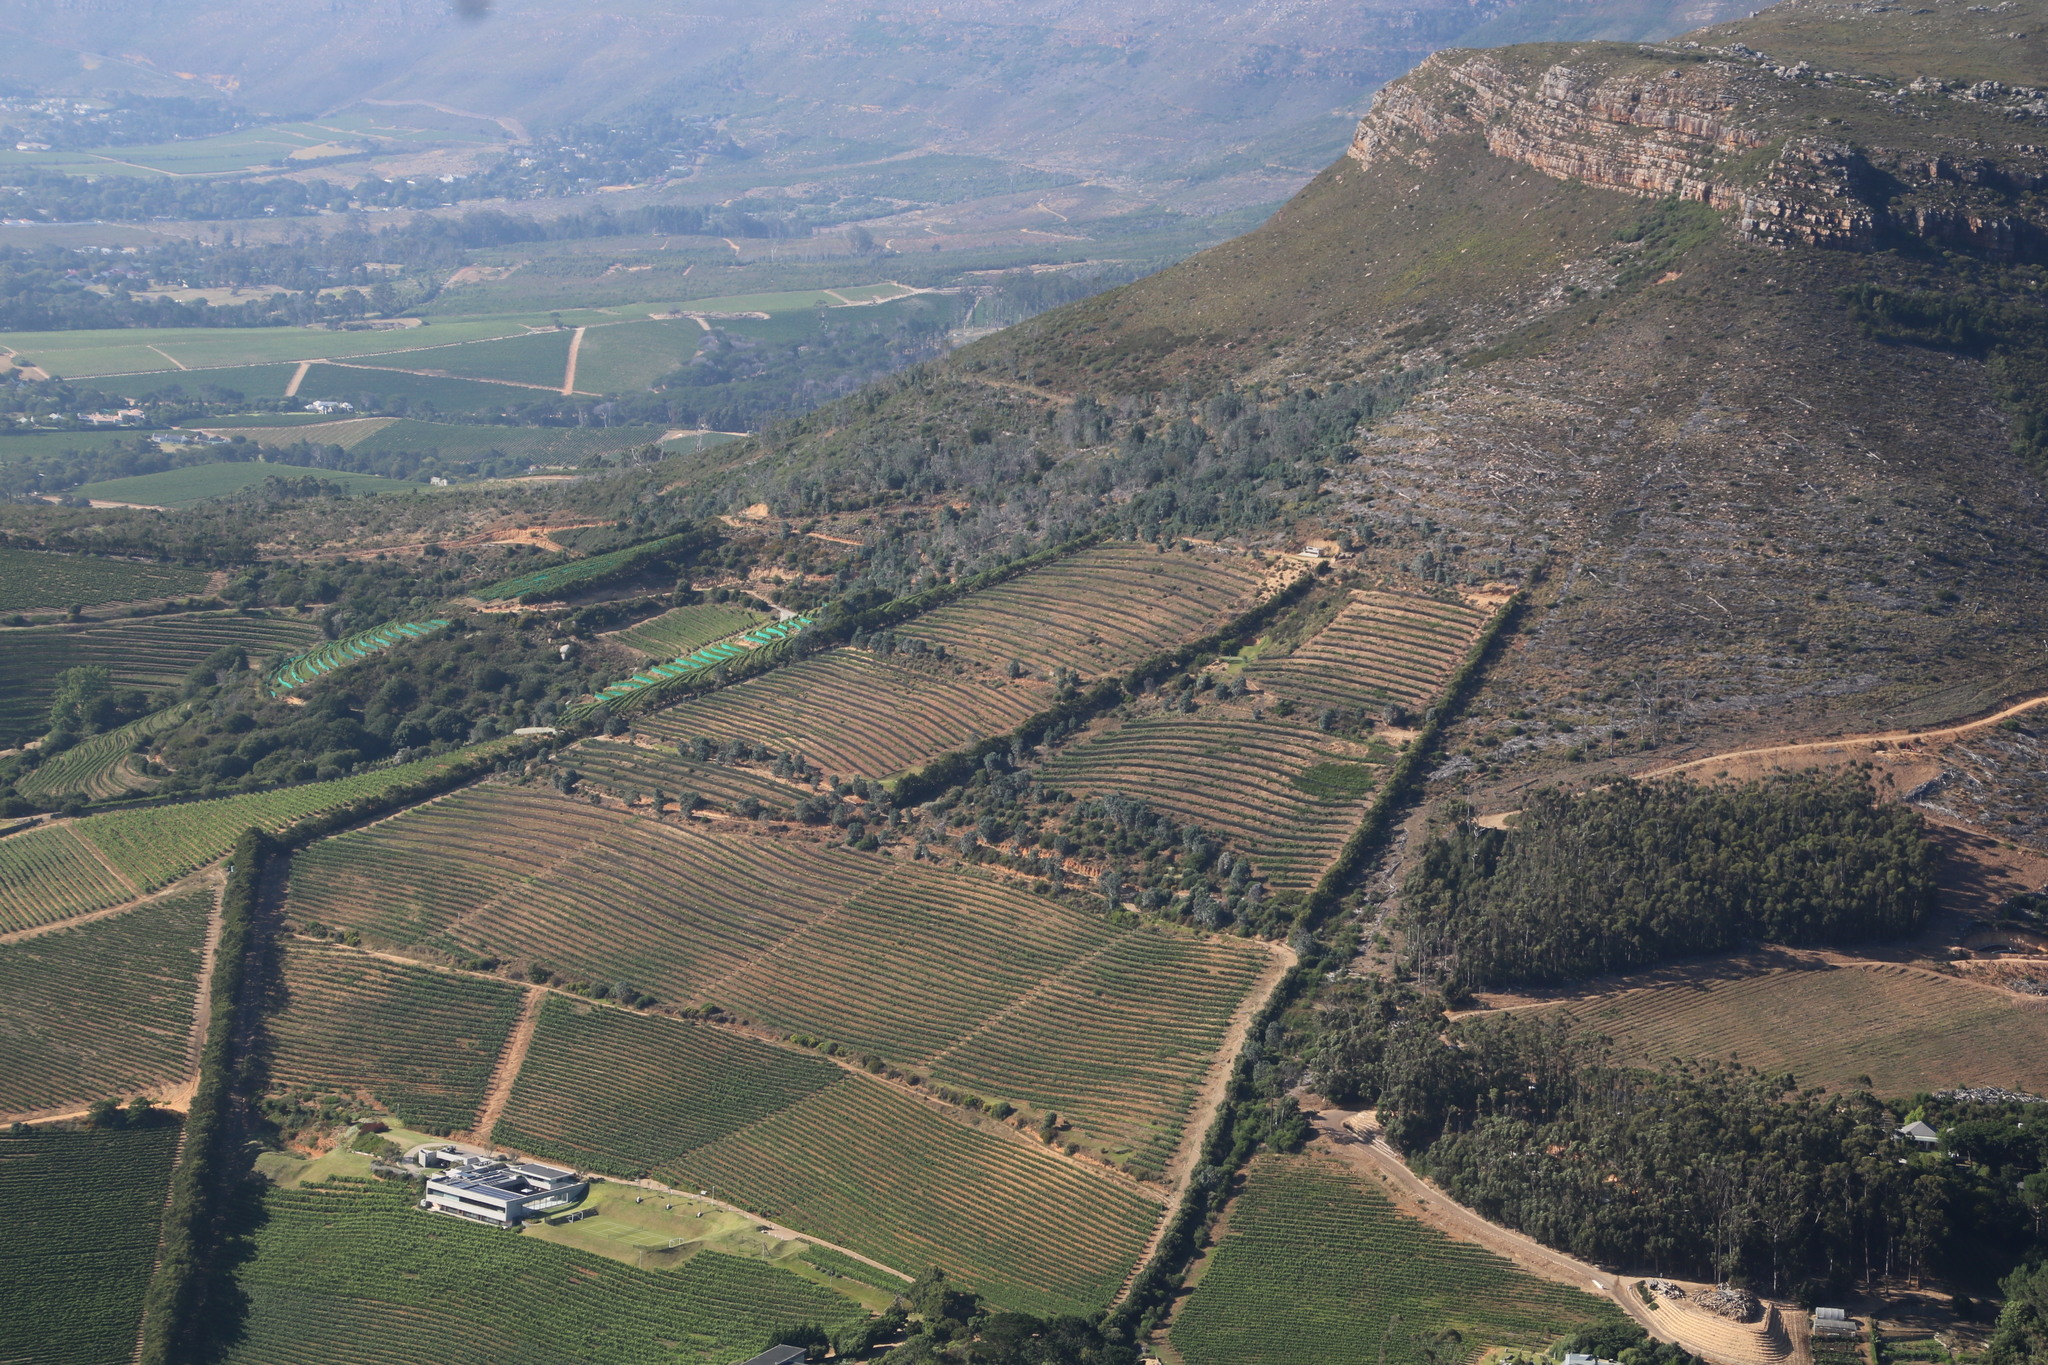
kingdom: Plantae
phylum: Tracheophyta
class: Magnoliopsida
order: Proteales
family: Proteaceae
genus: Leucadendron
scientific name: Leucadendron argenteum
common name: Cape silver tree
